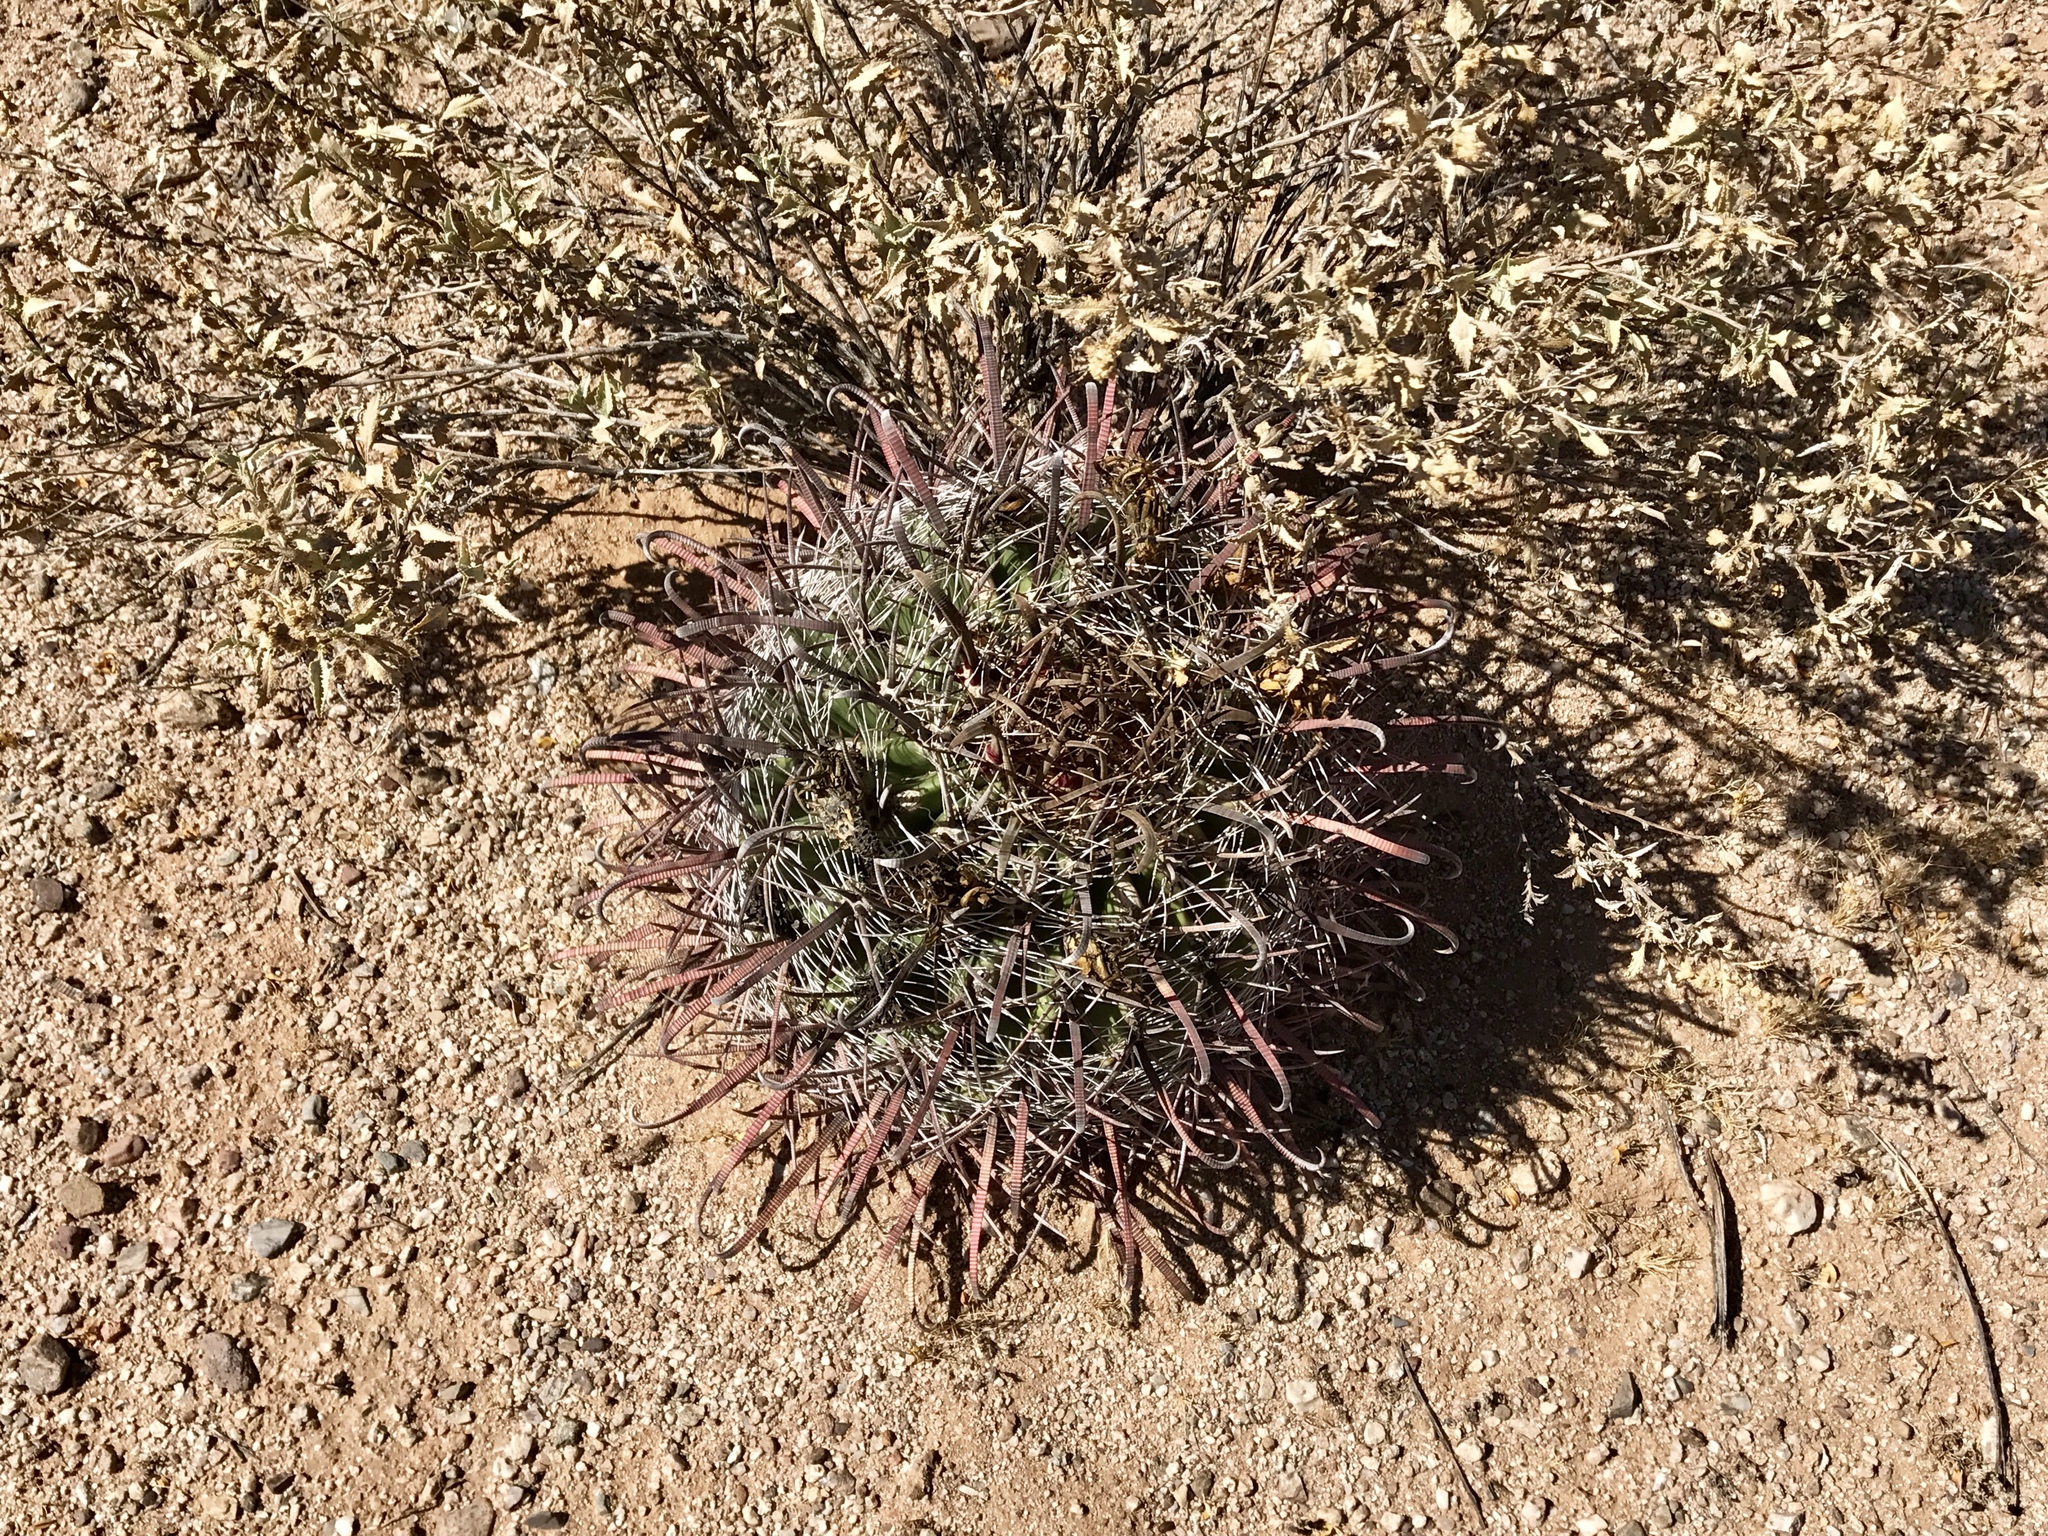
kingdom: Plantae
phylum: Tracheophyta
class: Magnoliopsida
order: Caryophyllales
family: Cactaceae
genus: Ferocactus
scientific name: Ferocactus wislizeni
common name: Candy barrel cactus
